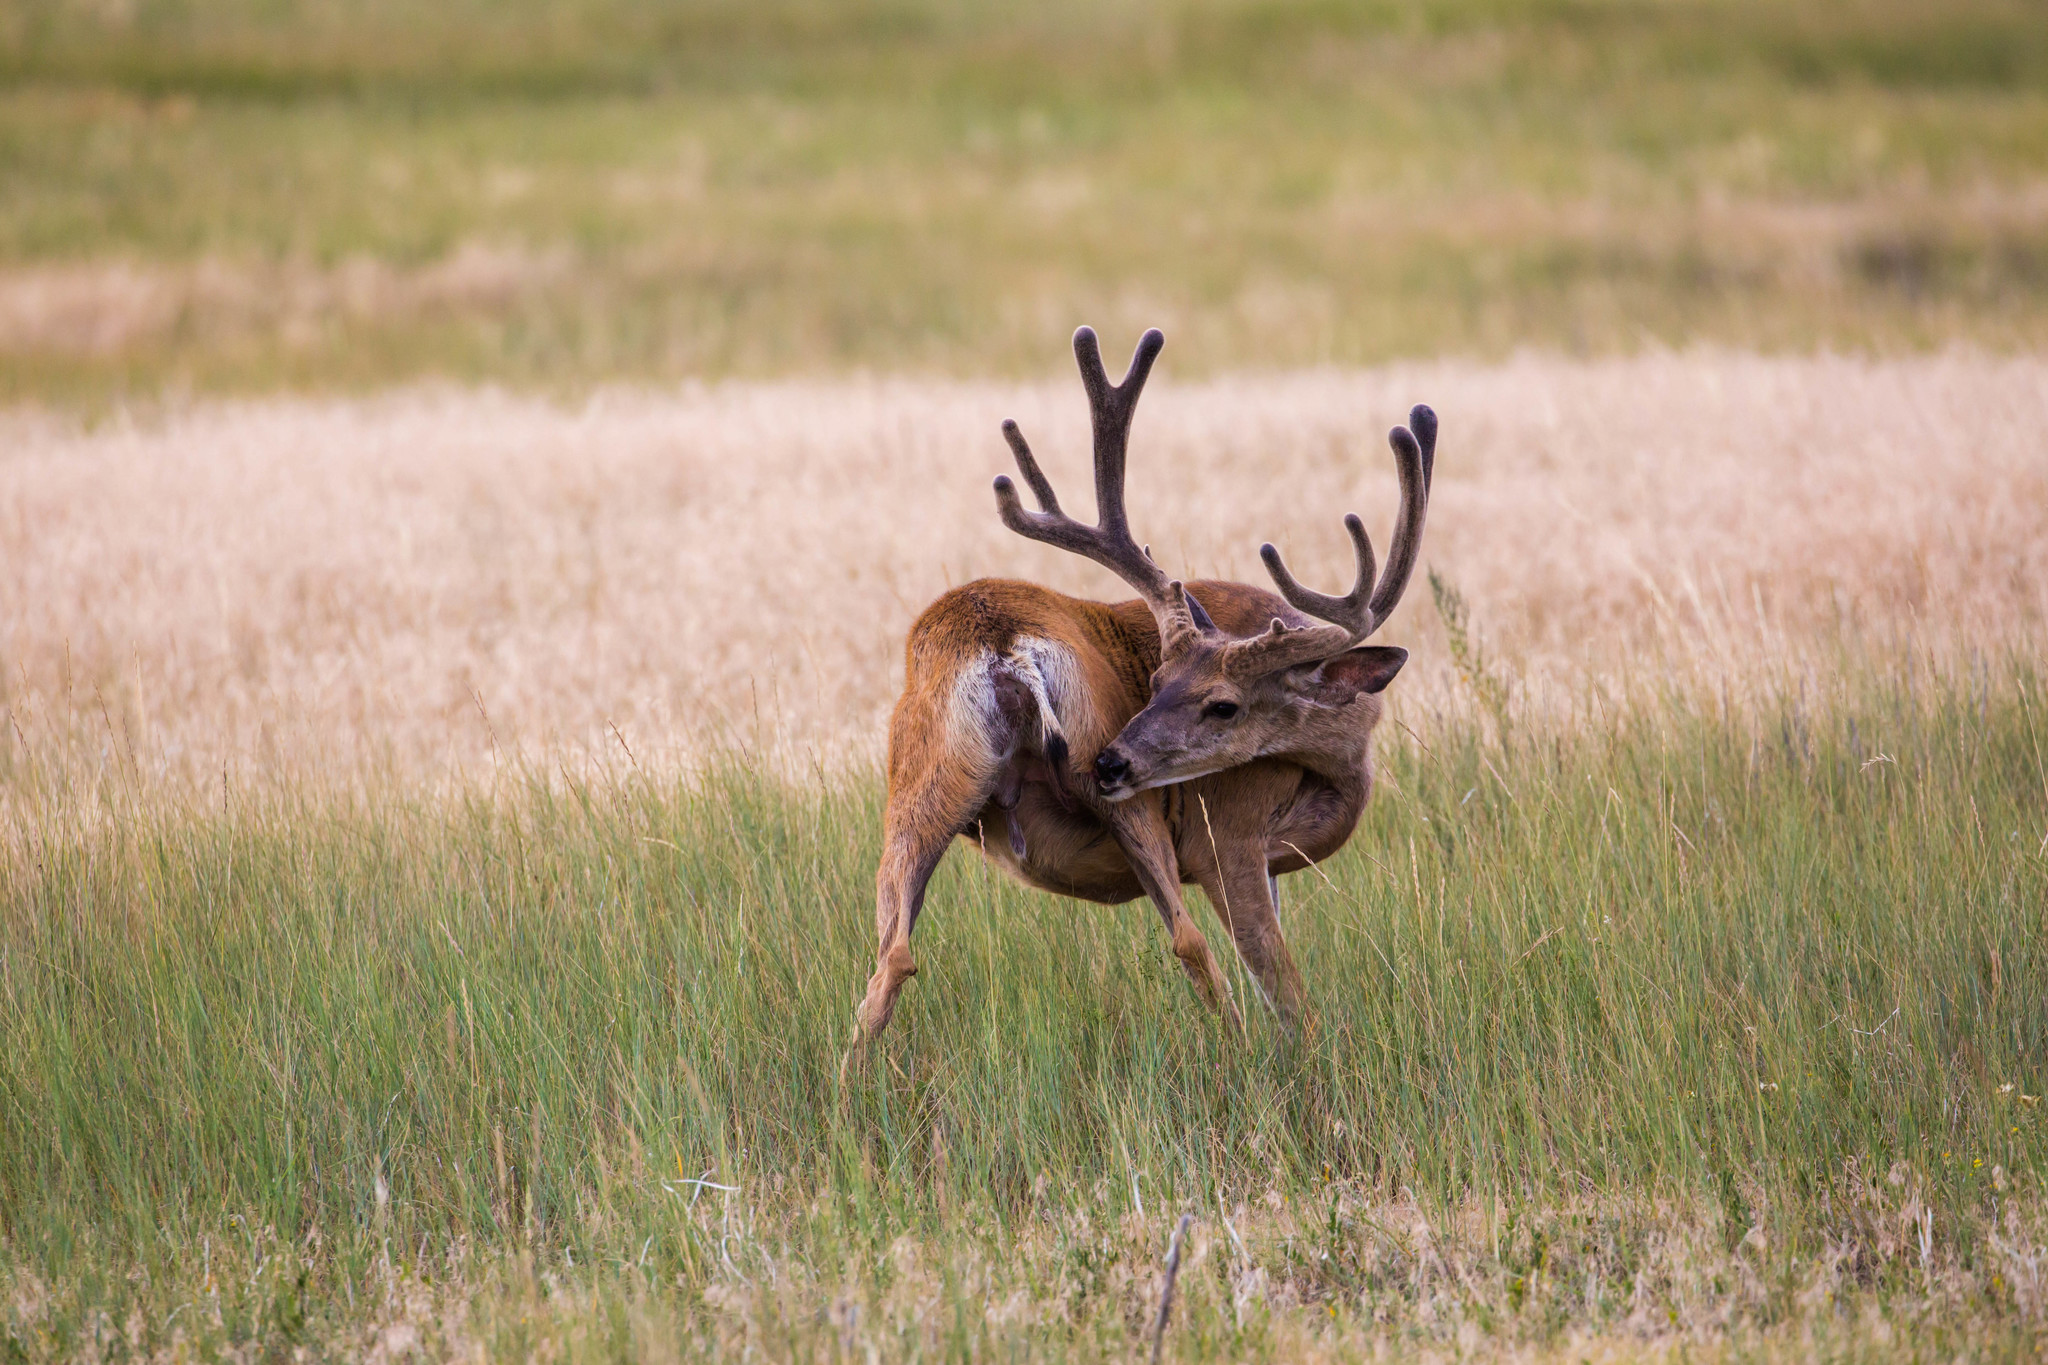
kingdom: Animalia
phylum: Chordata
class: Mammalia
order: Artiodactyla
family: Cervidae
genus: Odocoileus
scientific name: Odocoileus hemionus
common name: Mule deer
